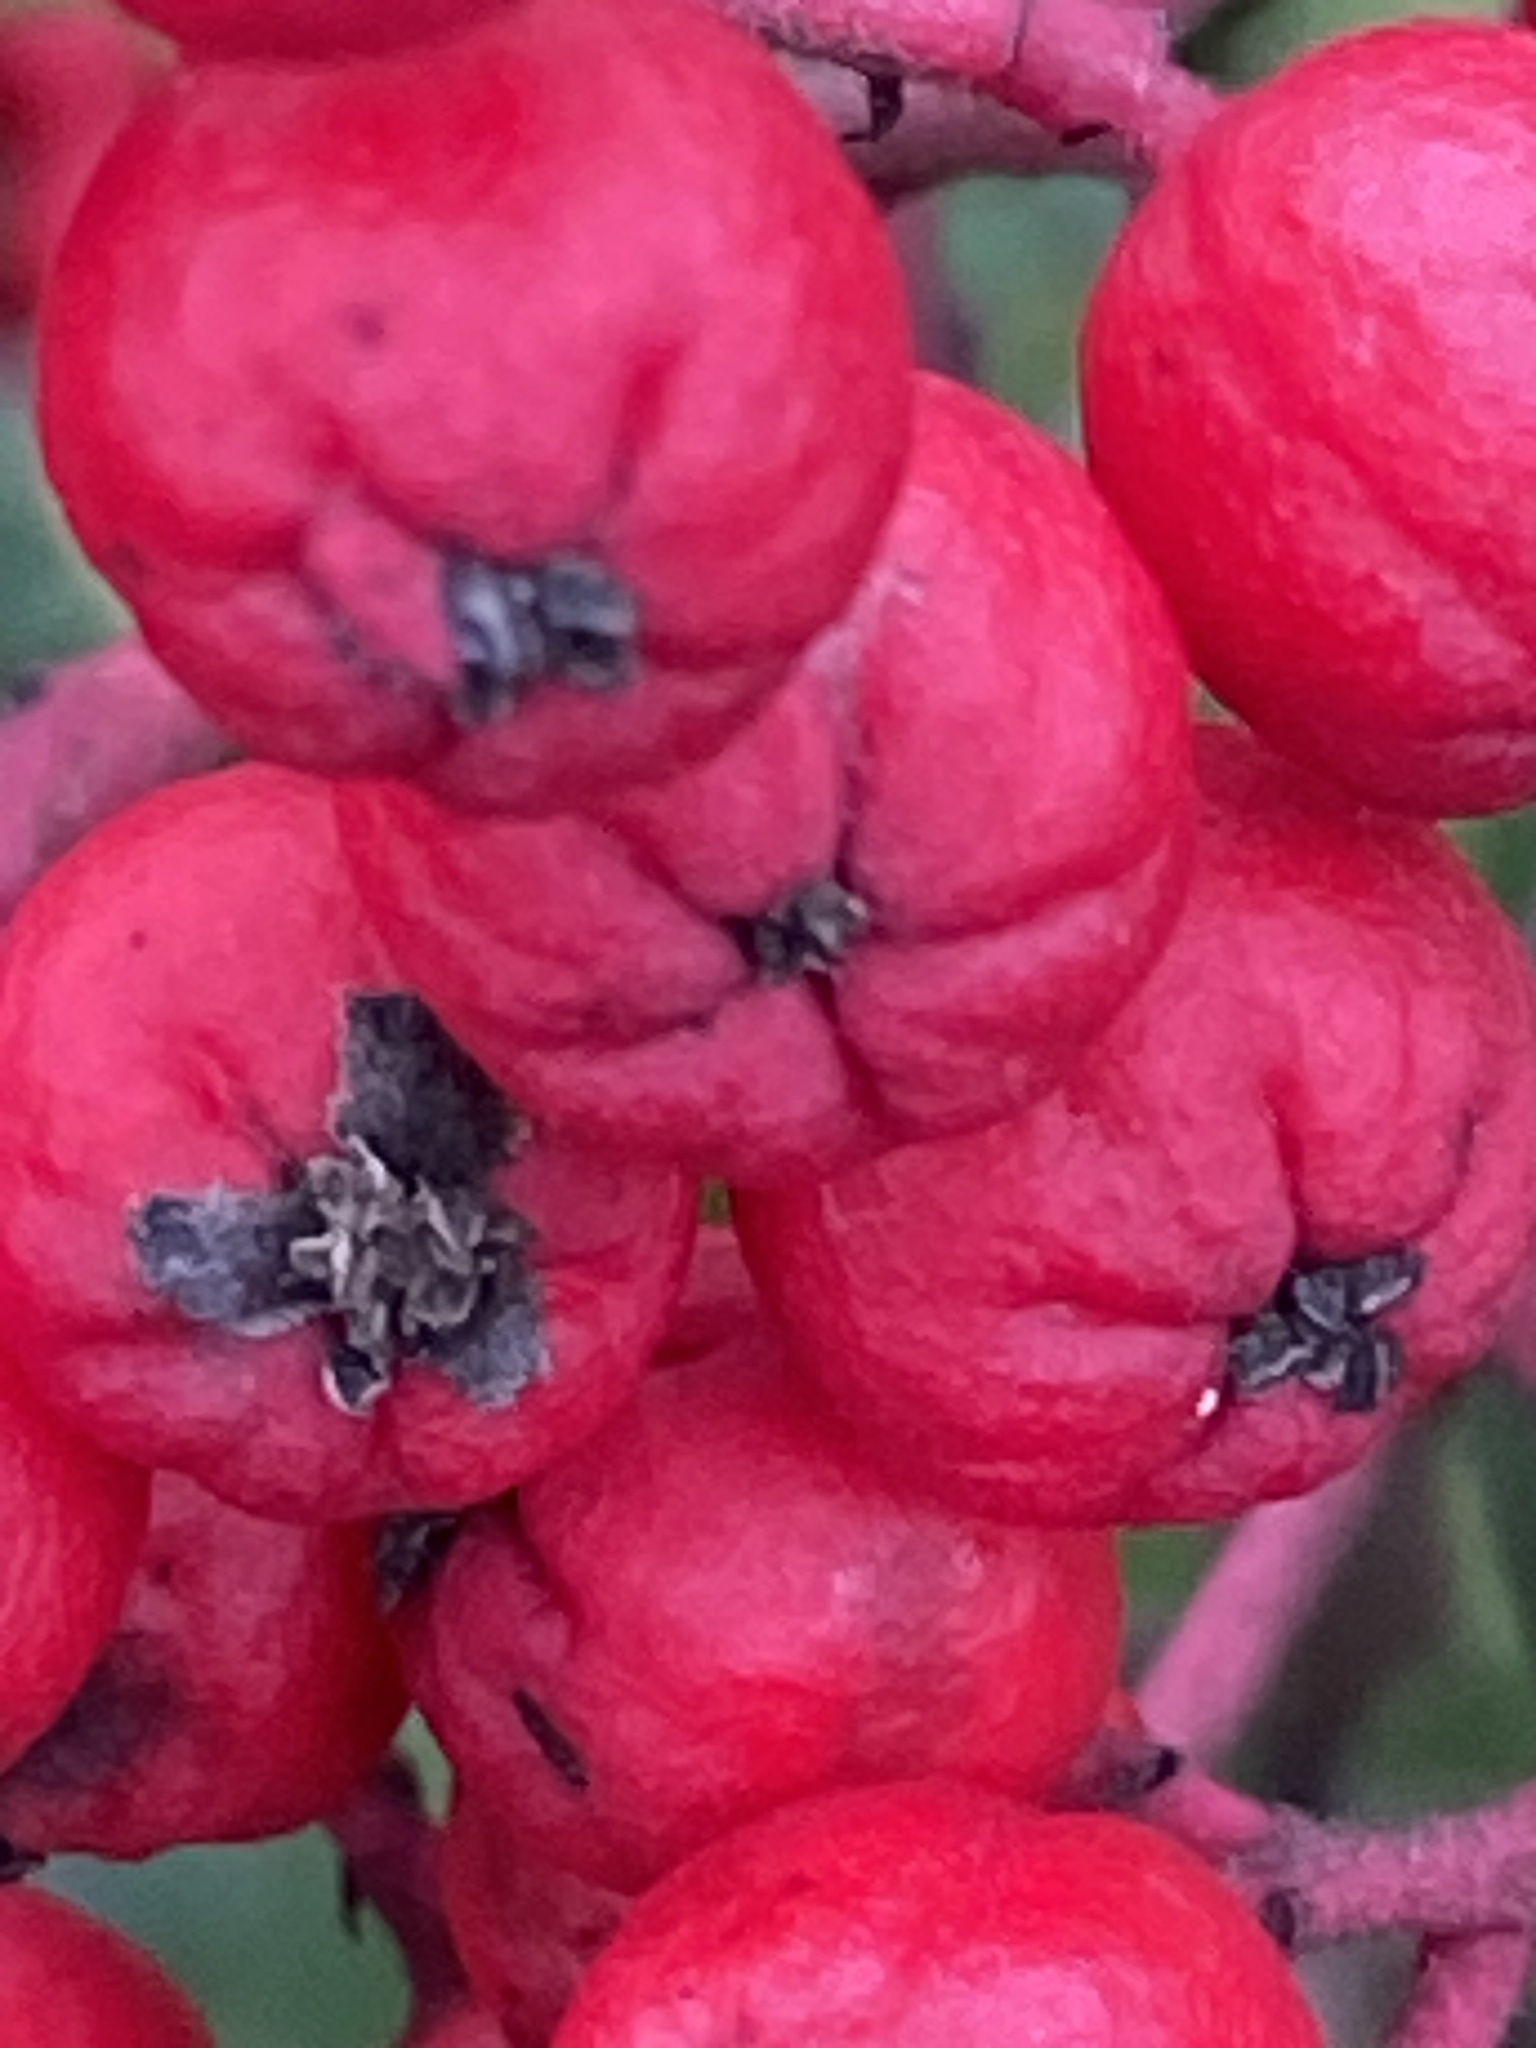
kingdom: Plantae
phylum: Tracheophyta
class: Magnoliopsida
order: Rosales
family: Rosaceae
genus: Heteromeles
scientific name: Heteromeles arbutifolia
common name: California-holly
